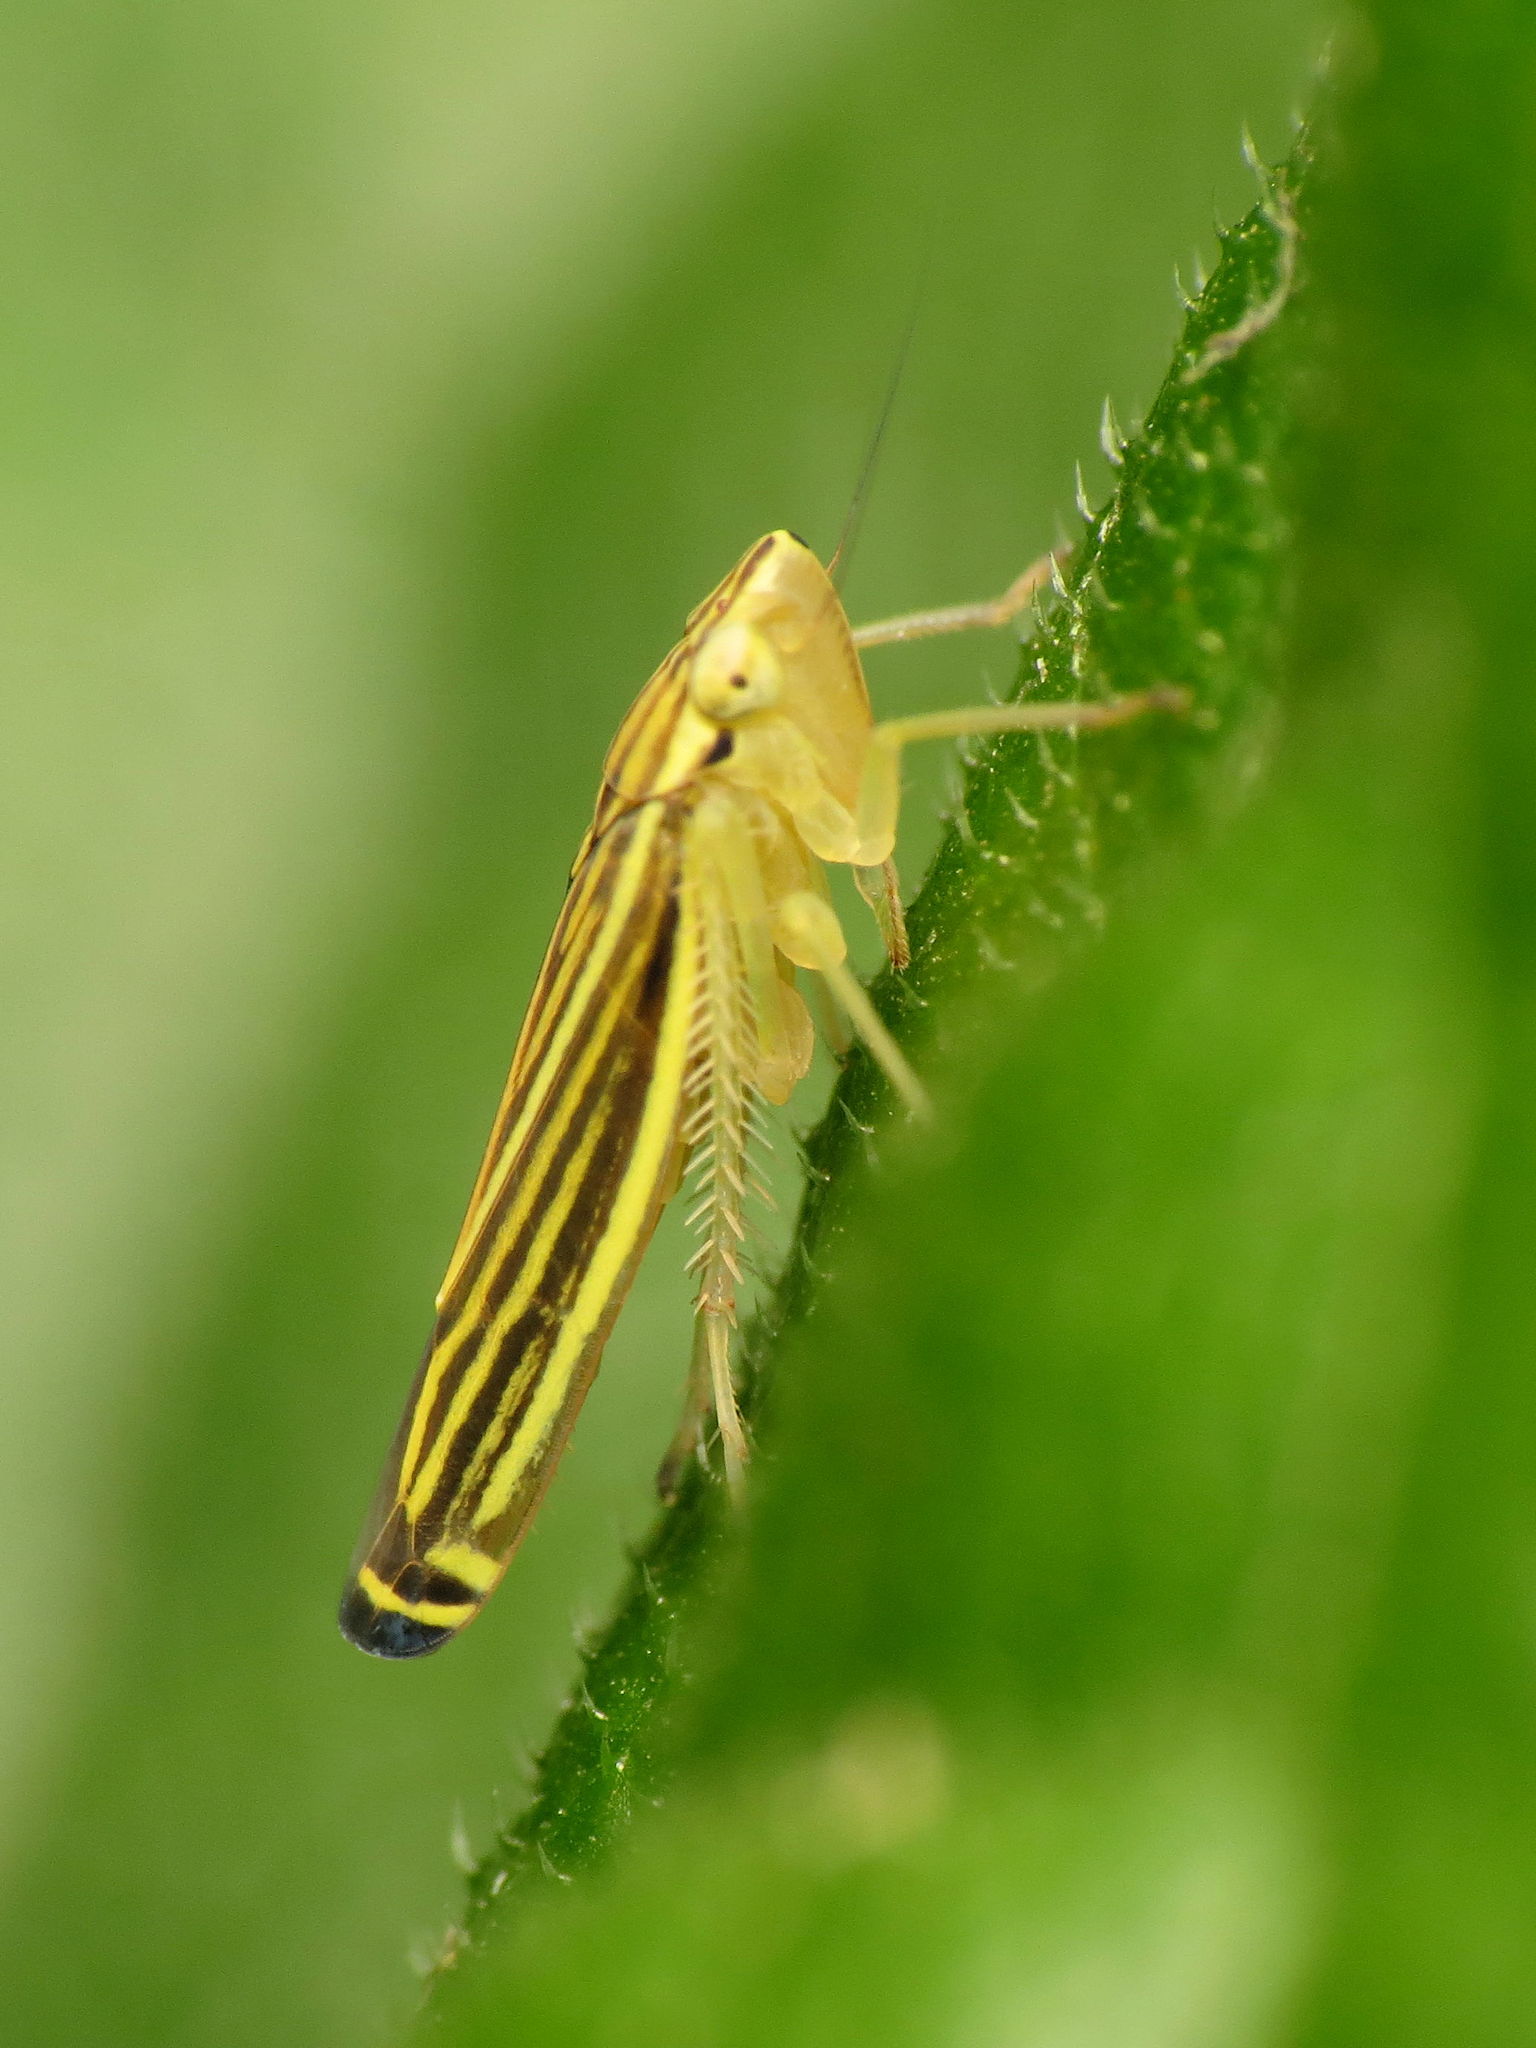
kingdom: Animalia
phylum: Arthropoda
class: Insecta
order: Hemiptera
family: Cicadellidae
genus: Sibovia
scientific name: Sibovia occatoria
